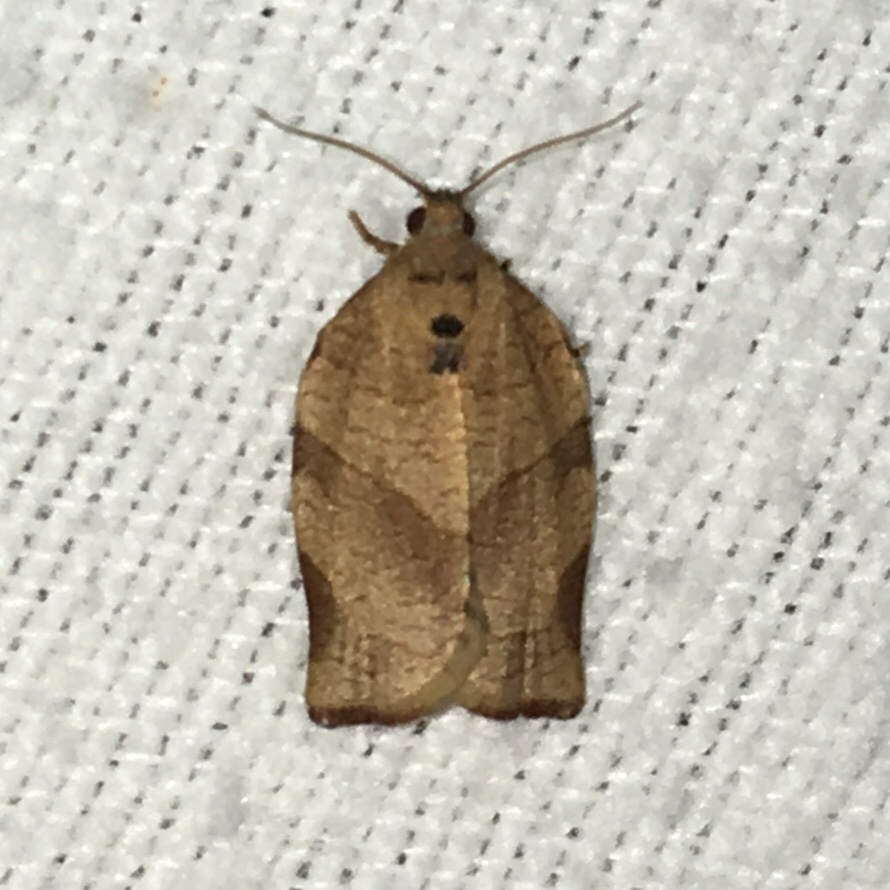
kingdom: Animalia
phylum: Arthropoda
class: Insecta
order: Lepidoptera
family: Tortricidae
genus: Choristoneura
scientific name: Choristoneura rosaceana
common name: Oblique-banded leafroller moth
